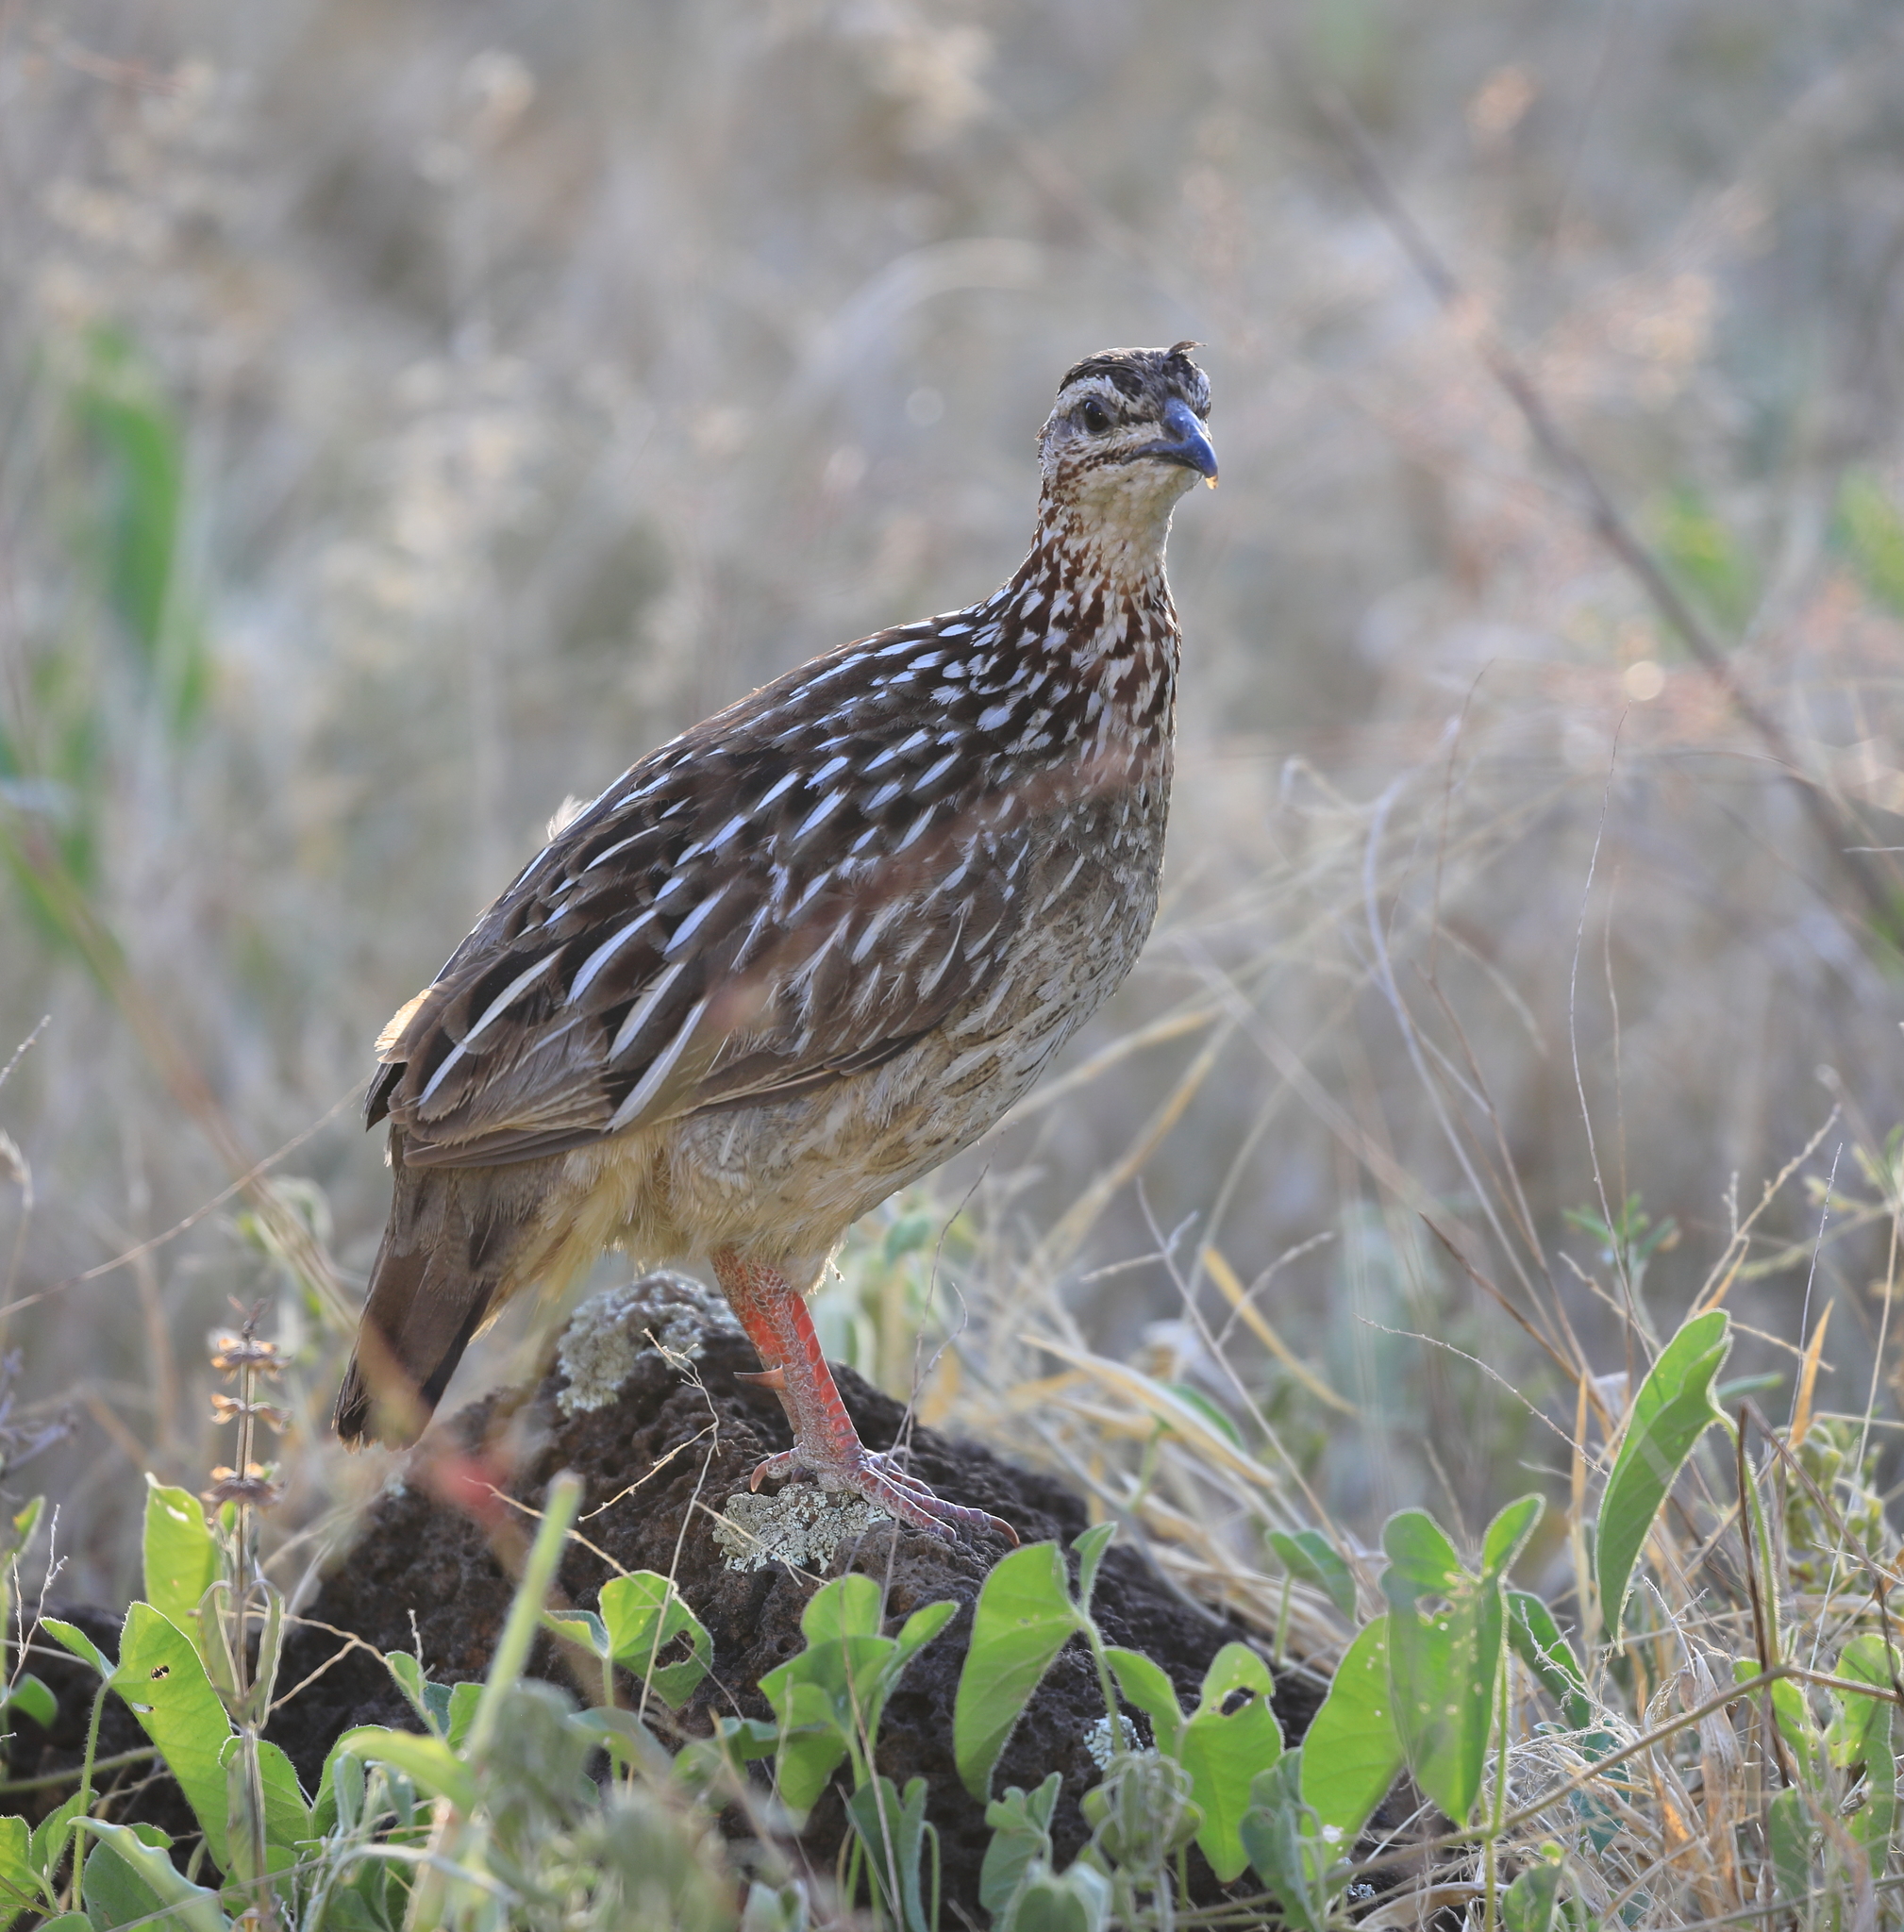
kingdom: Animalia
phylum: Chordata
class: Aves
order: Galliformes
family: Phasianidae
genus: Ortygornis
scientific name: Ortygornis sephaena
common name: Crested francolin
